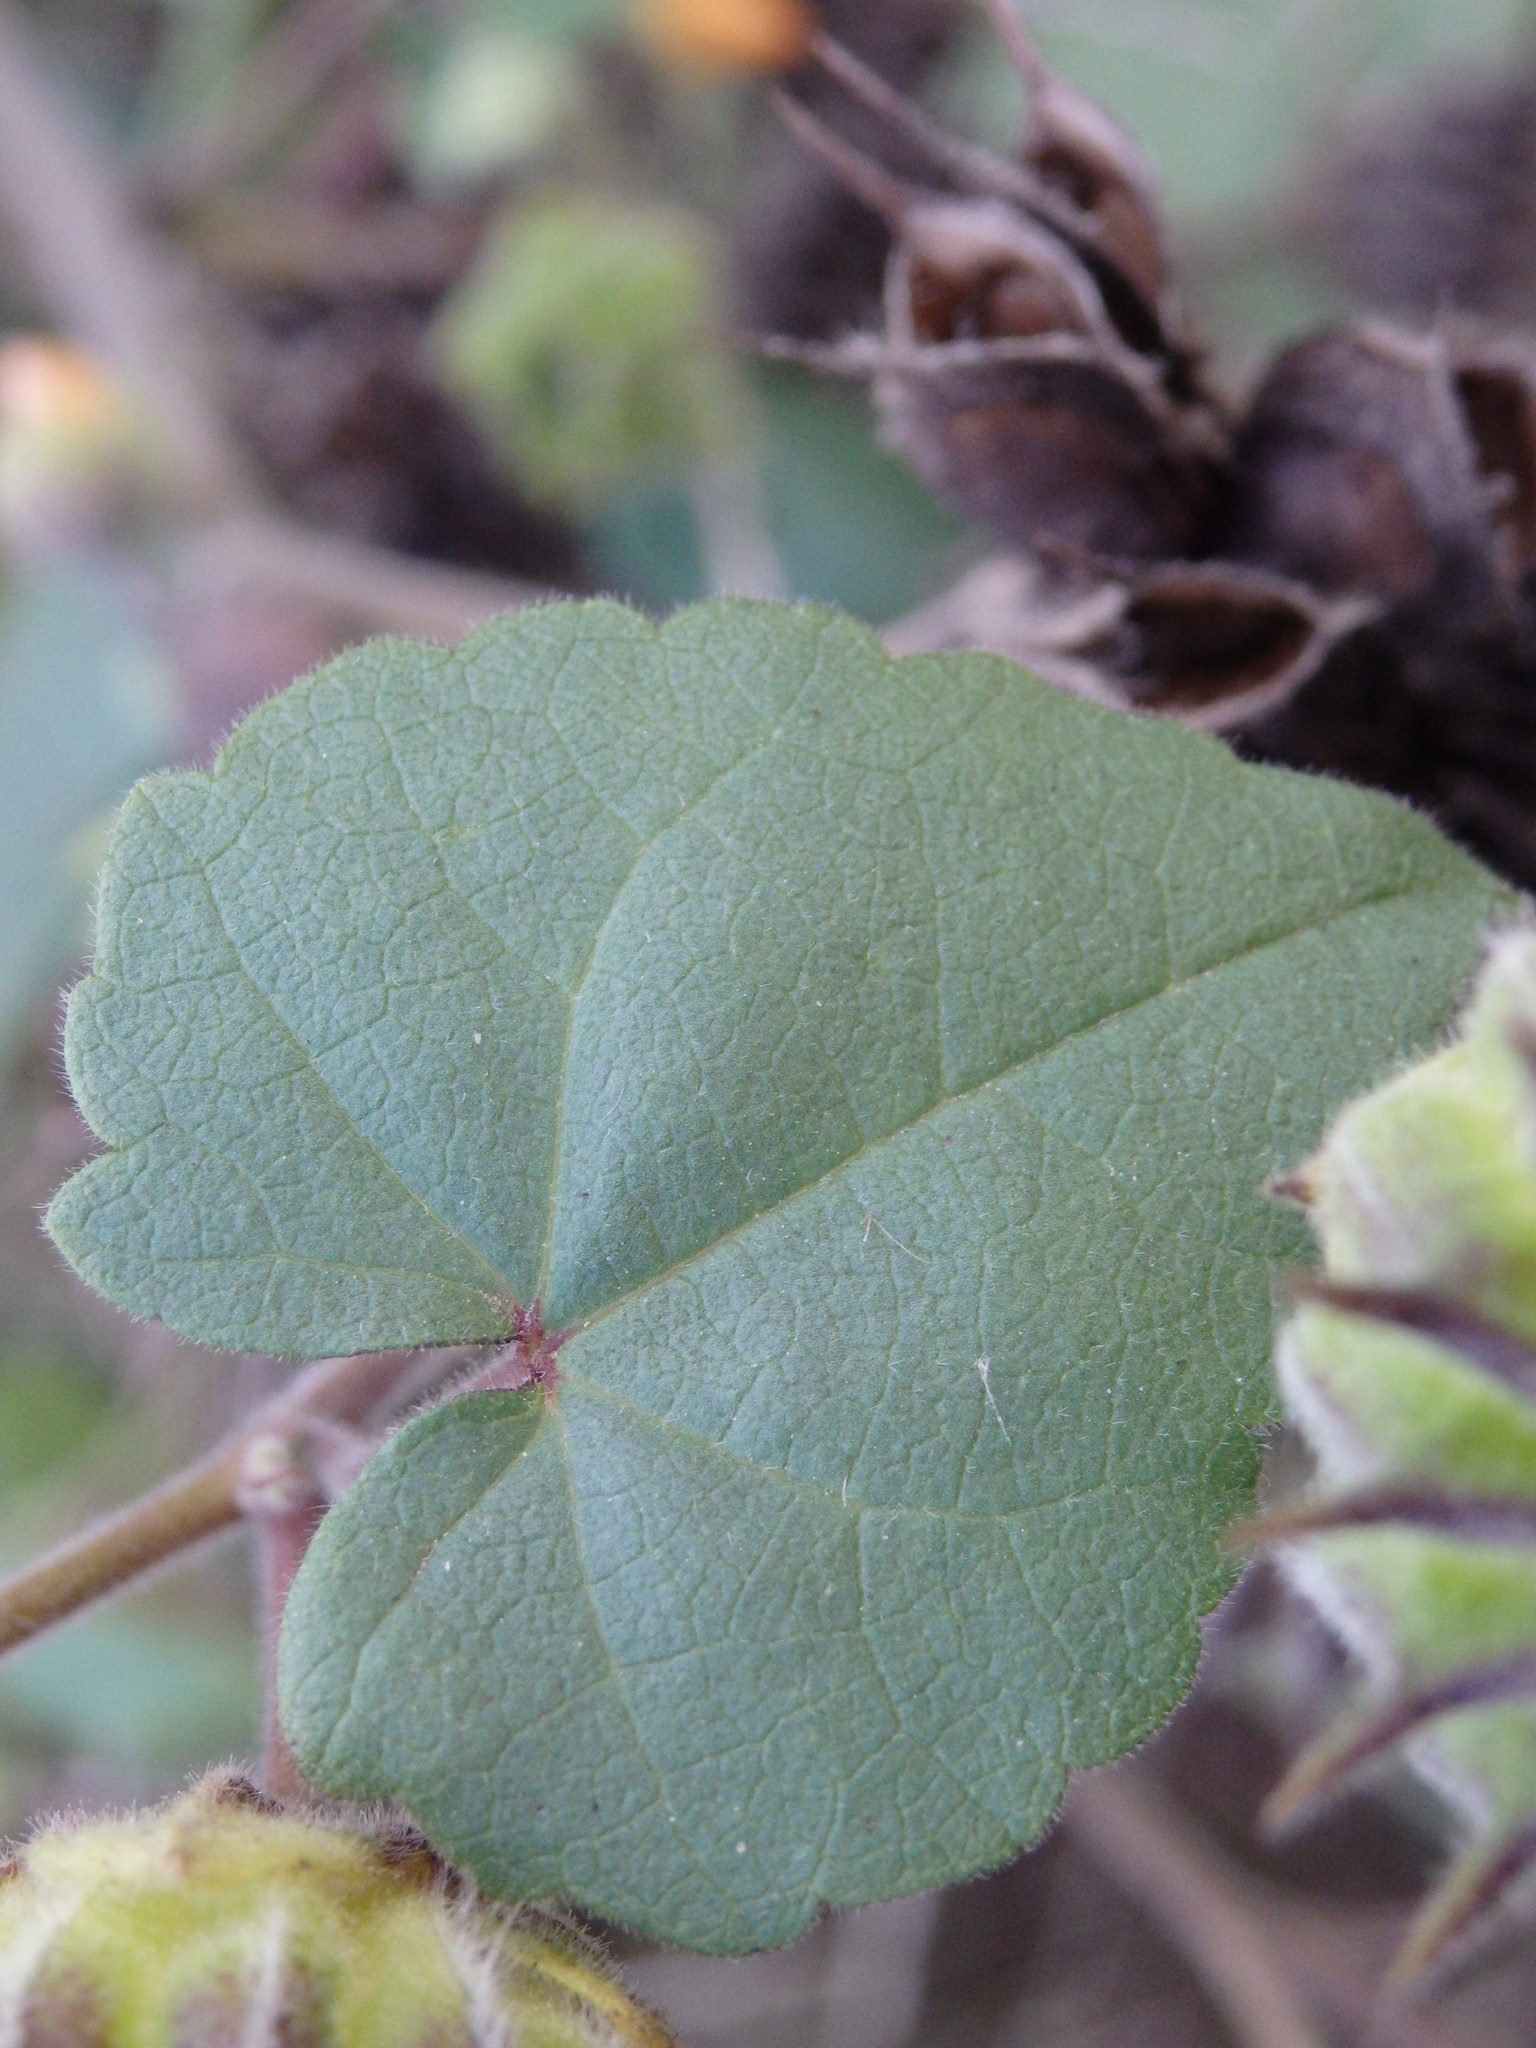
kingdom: Plantae
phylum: Tracheophyta
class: Magnoliopsida
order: Malvales
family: Malvaceae
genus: Abutilon
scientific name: Abutilon theophrasti
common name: Velvetleaf
